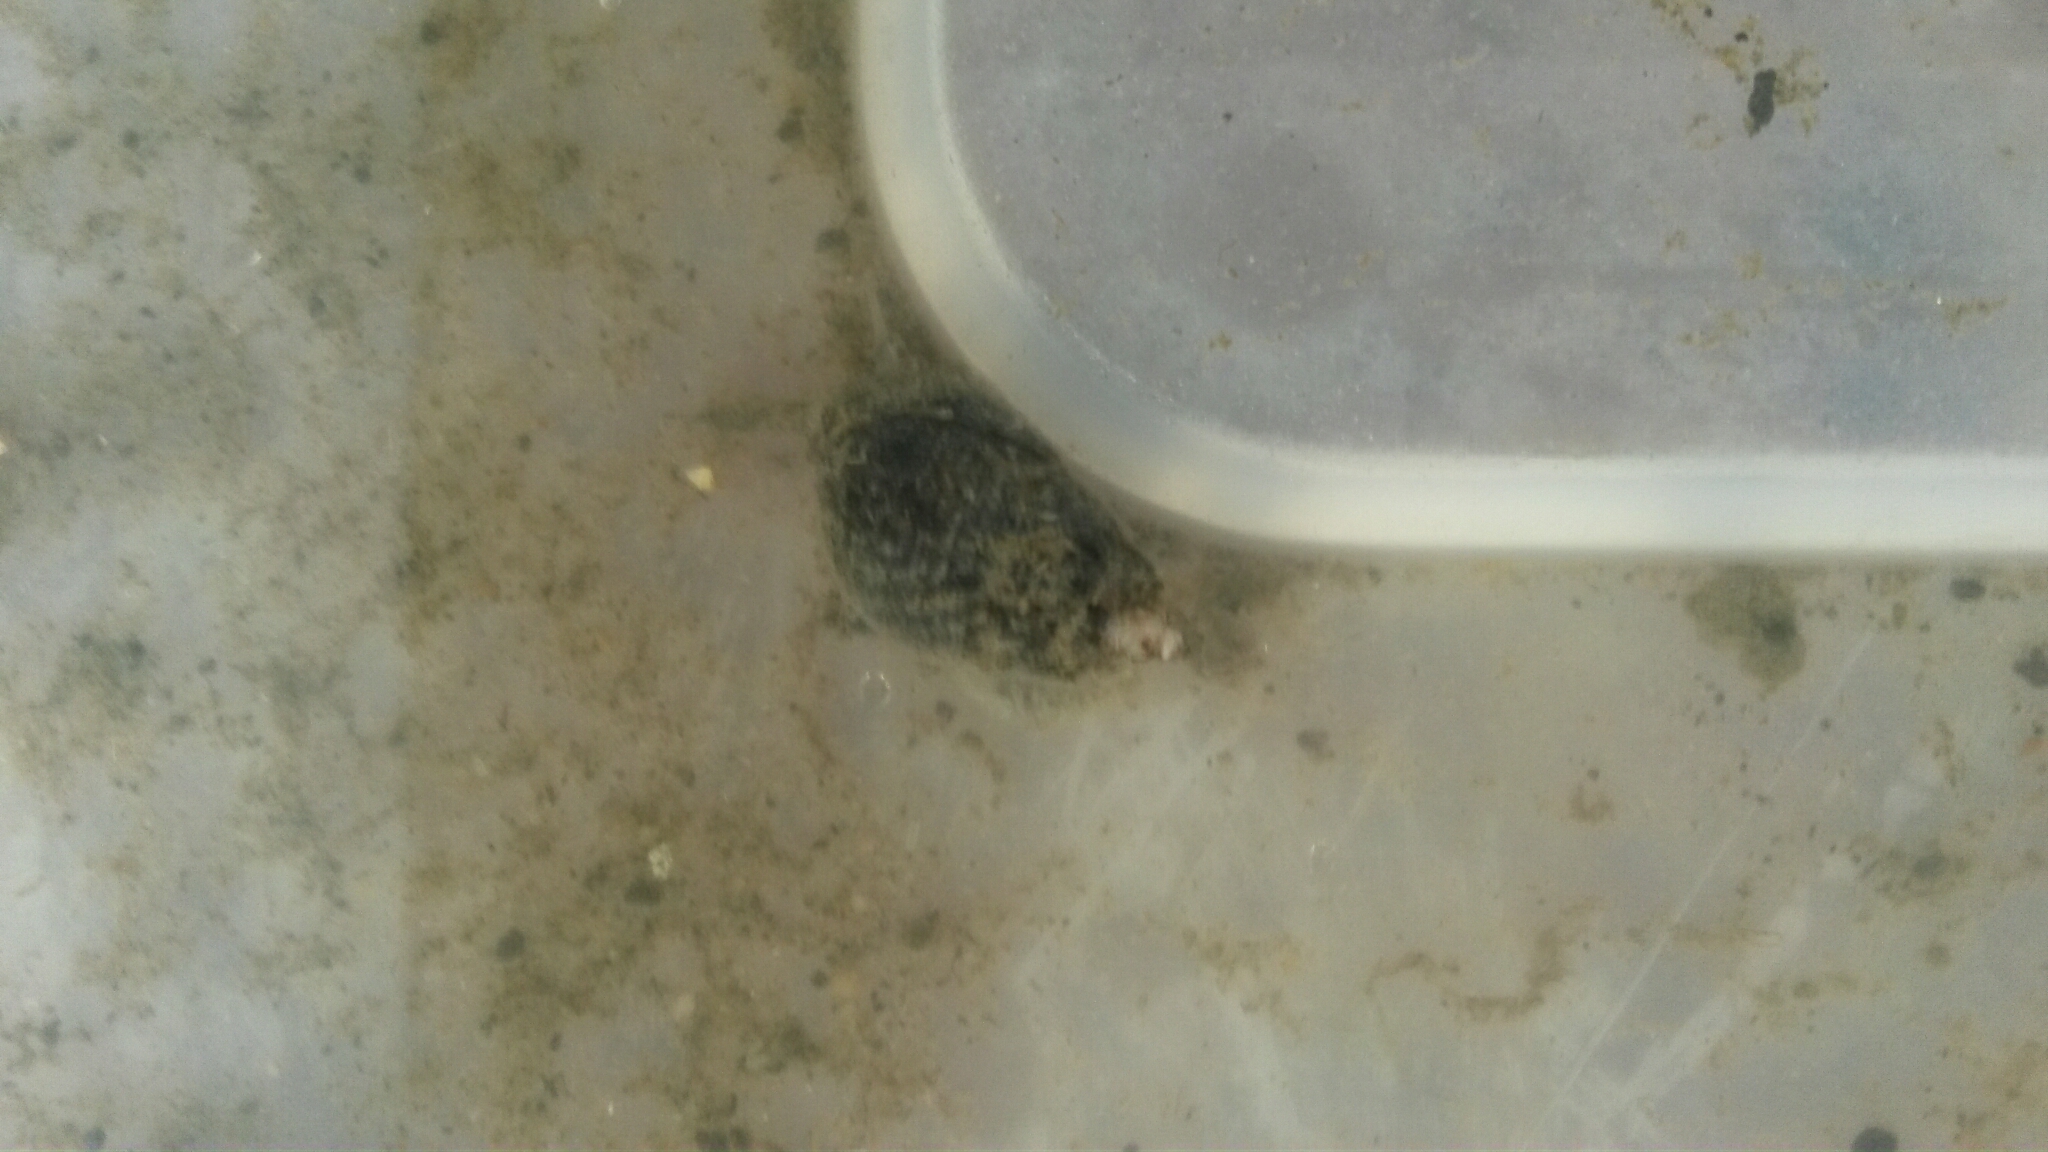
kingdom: Animalia
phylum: Mollusca
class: Gastropoda
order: Neogastropoda
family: Nassariidae
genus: Ilyanassa
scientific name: Ilyanassa obsoleta
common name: Eastern mudsnail
